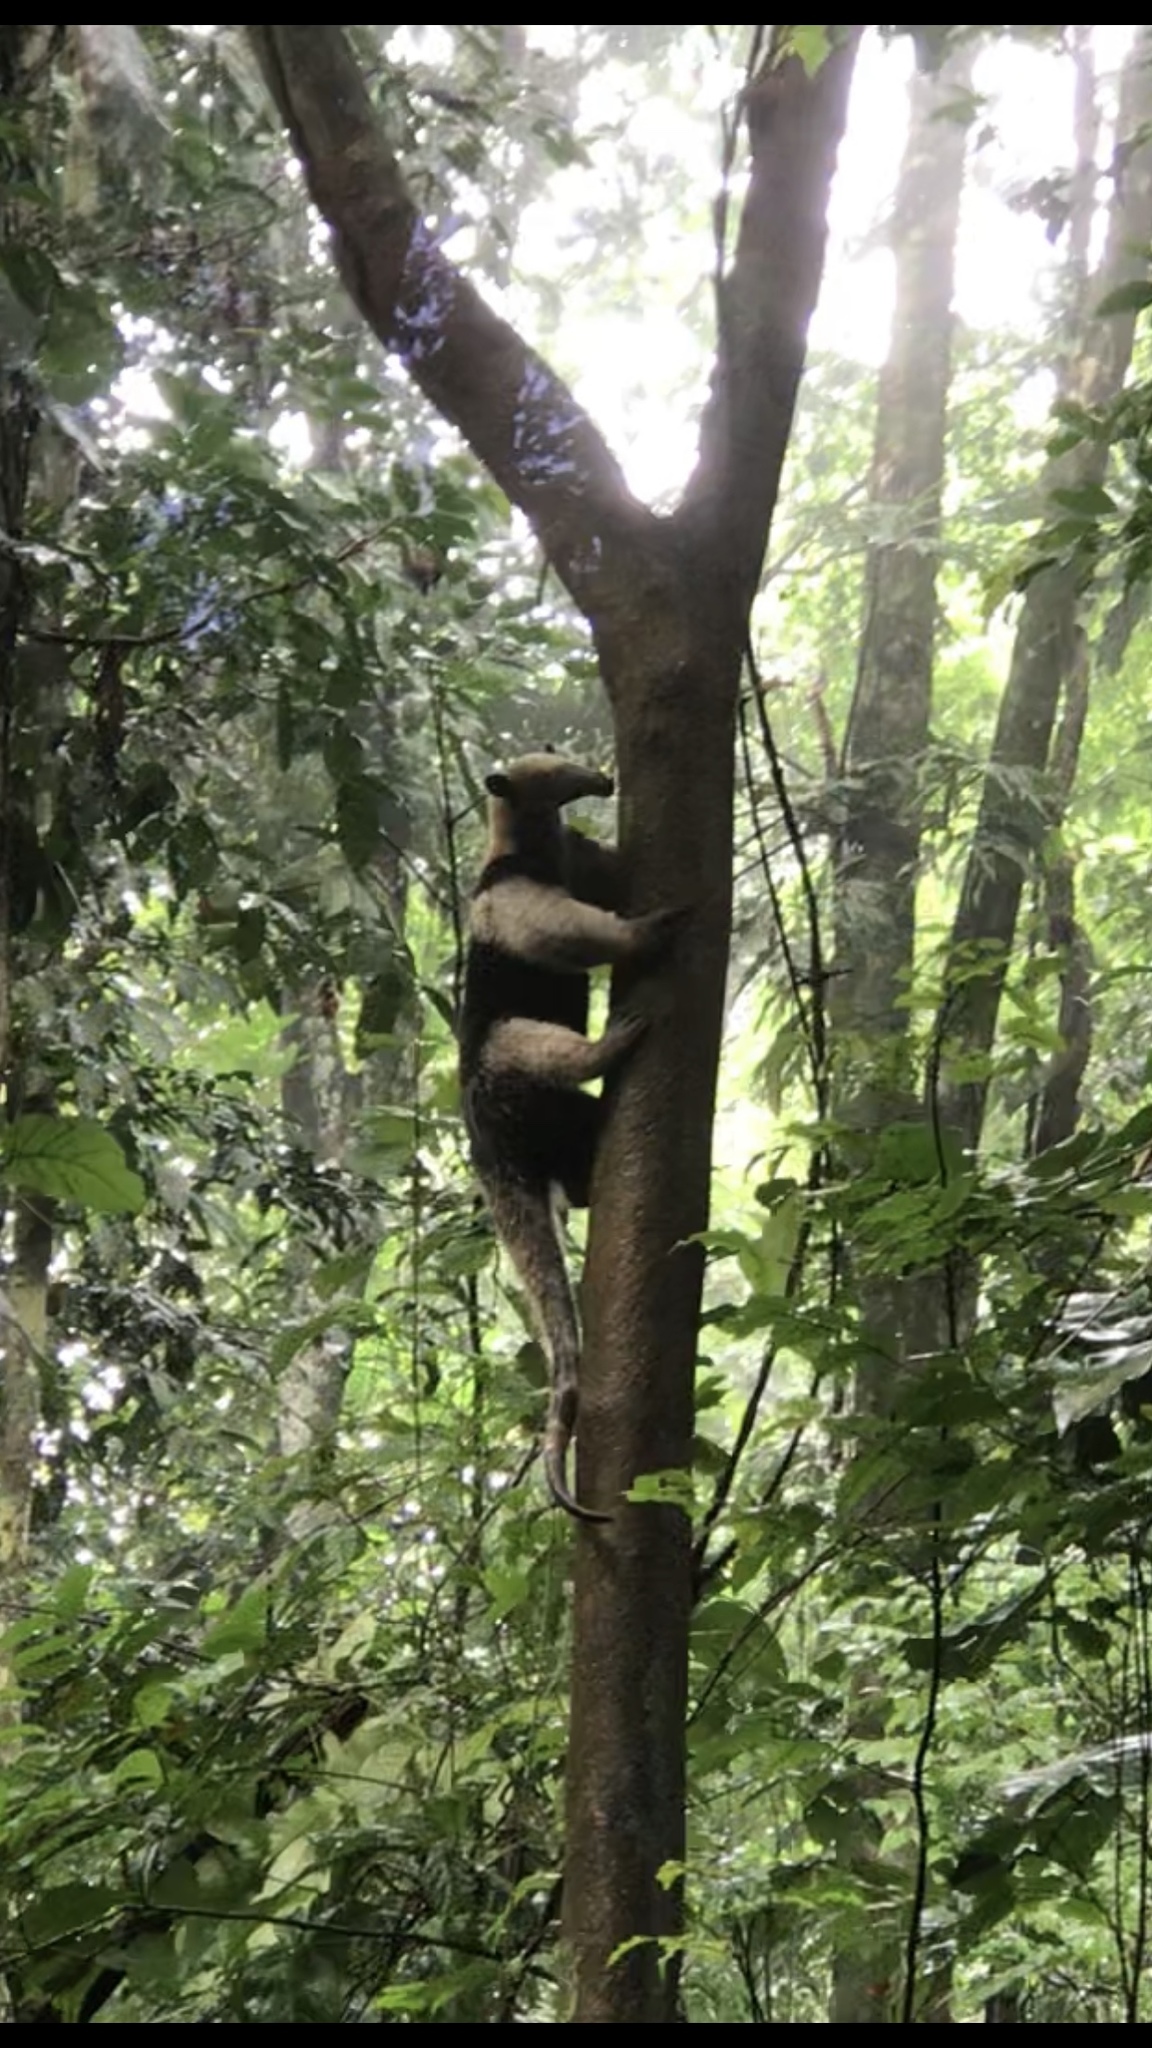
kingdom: Animalia
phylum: Chordata
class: Mammalia
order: Pilosa
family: Myrmecophagidae
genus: Tamandua
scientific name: Tamandua mexicana
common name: Northern tamandua
